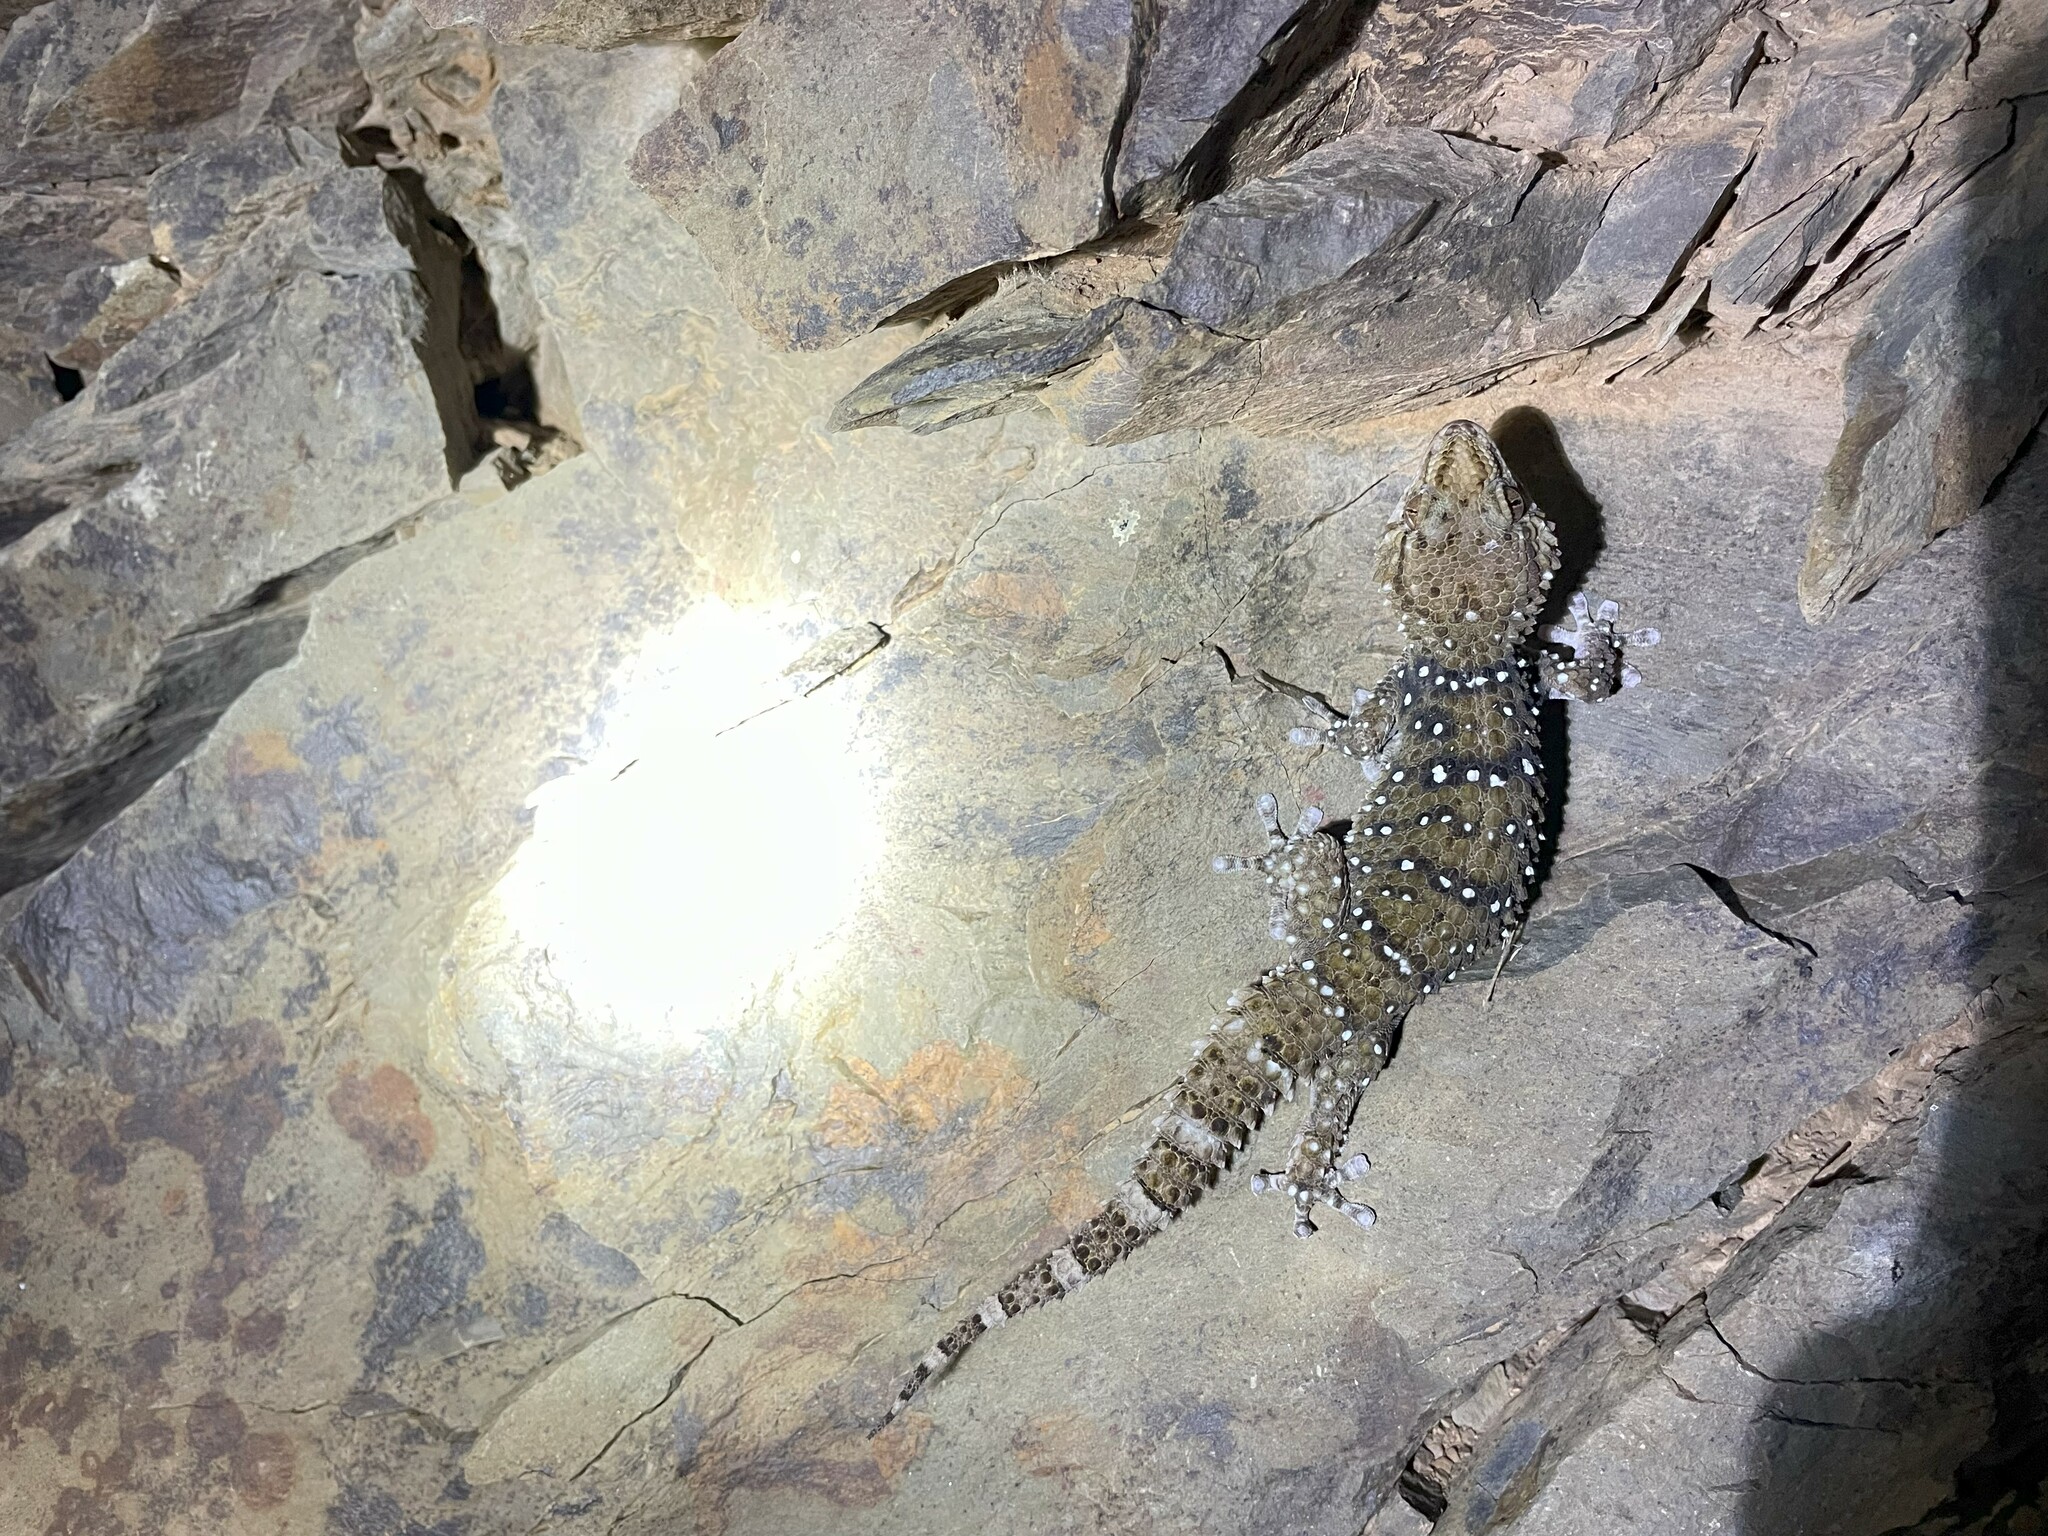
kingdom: Animalia
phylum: Chordata
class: Squamata
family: Gekkonidae
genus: Chondrodactylus
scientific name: Chondrodactylus bibronii
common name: Bibron's gecko
